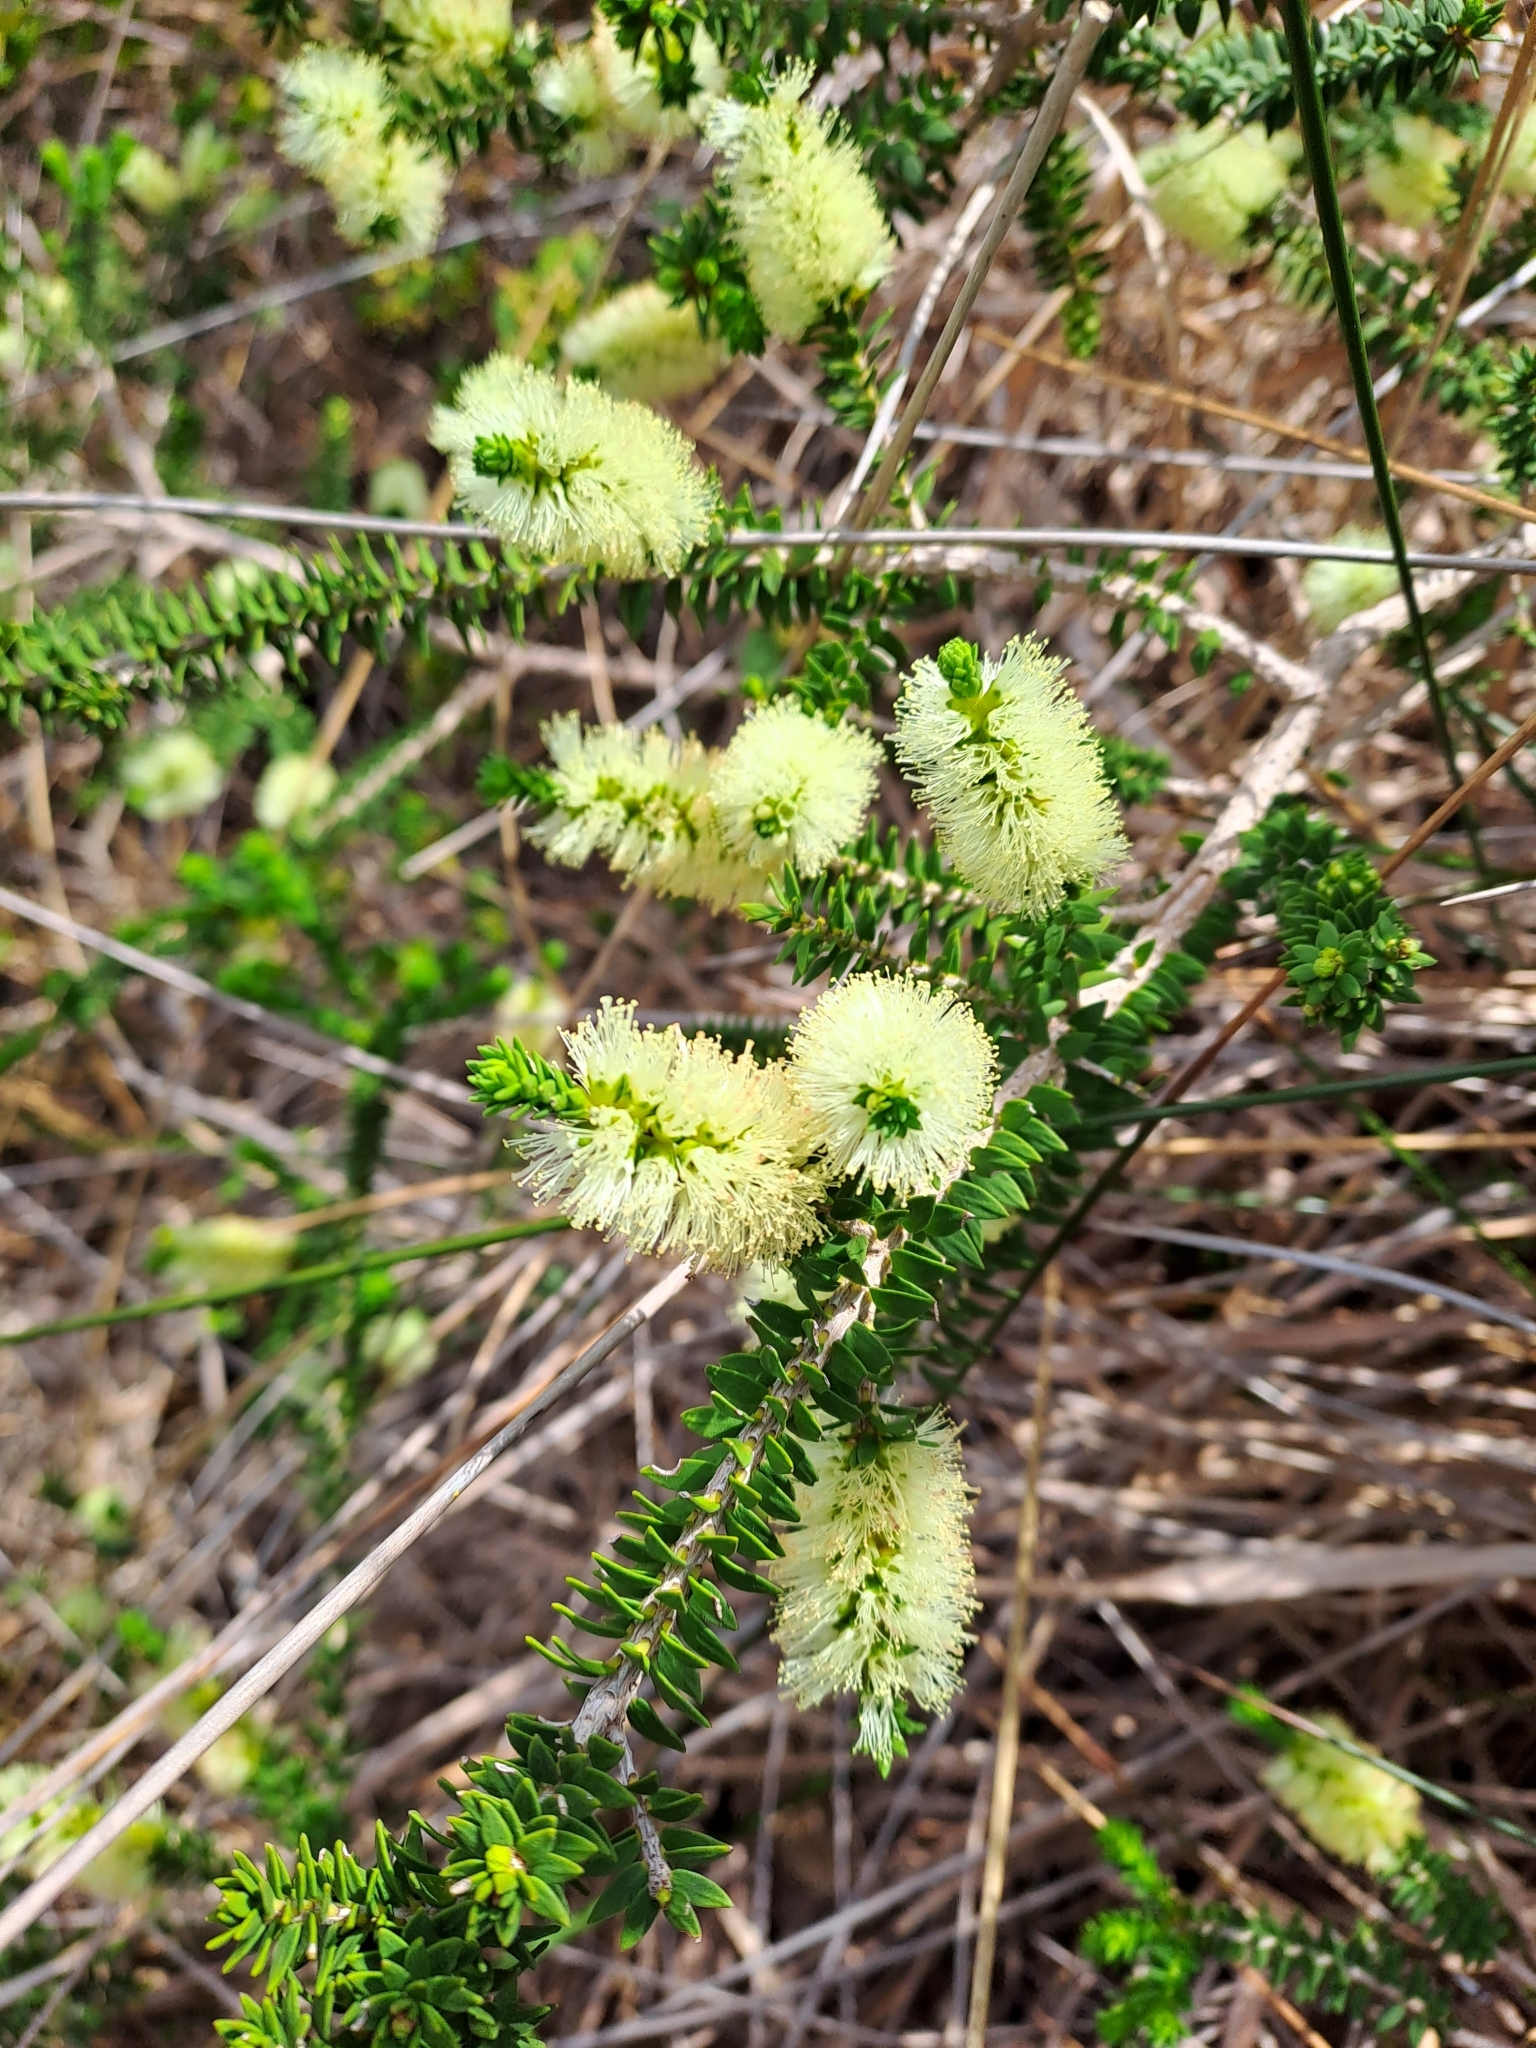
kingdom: Plantae
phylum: Tracheophyta
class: Magnoliopsida
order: Myrtales
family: Myrtaceae
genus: Melaleuca
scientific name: Melaleuca diosmifolia
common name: Green honey myrtle
